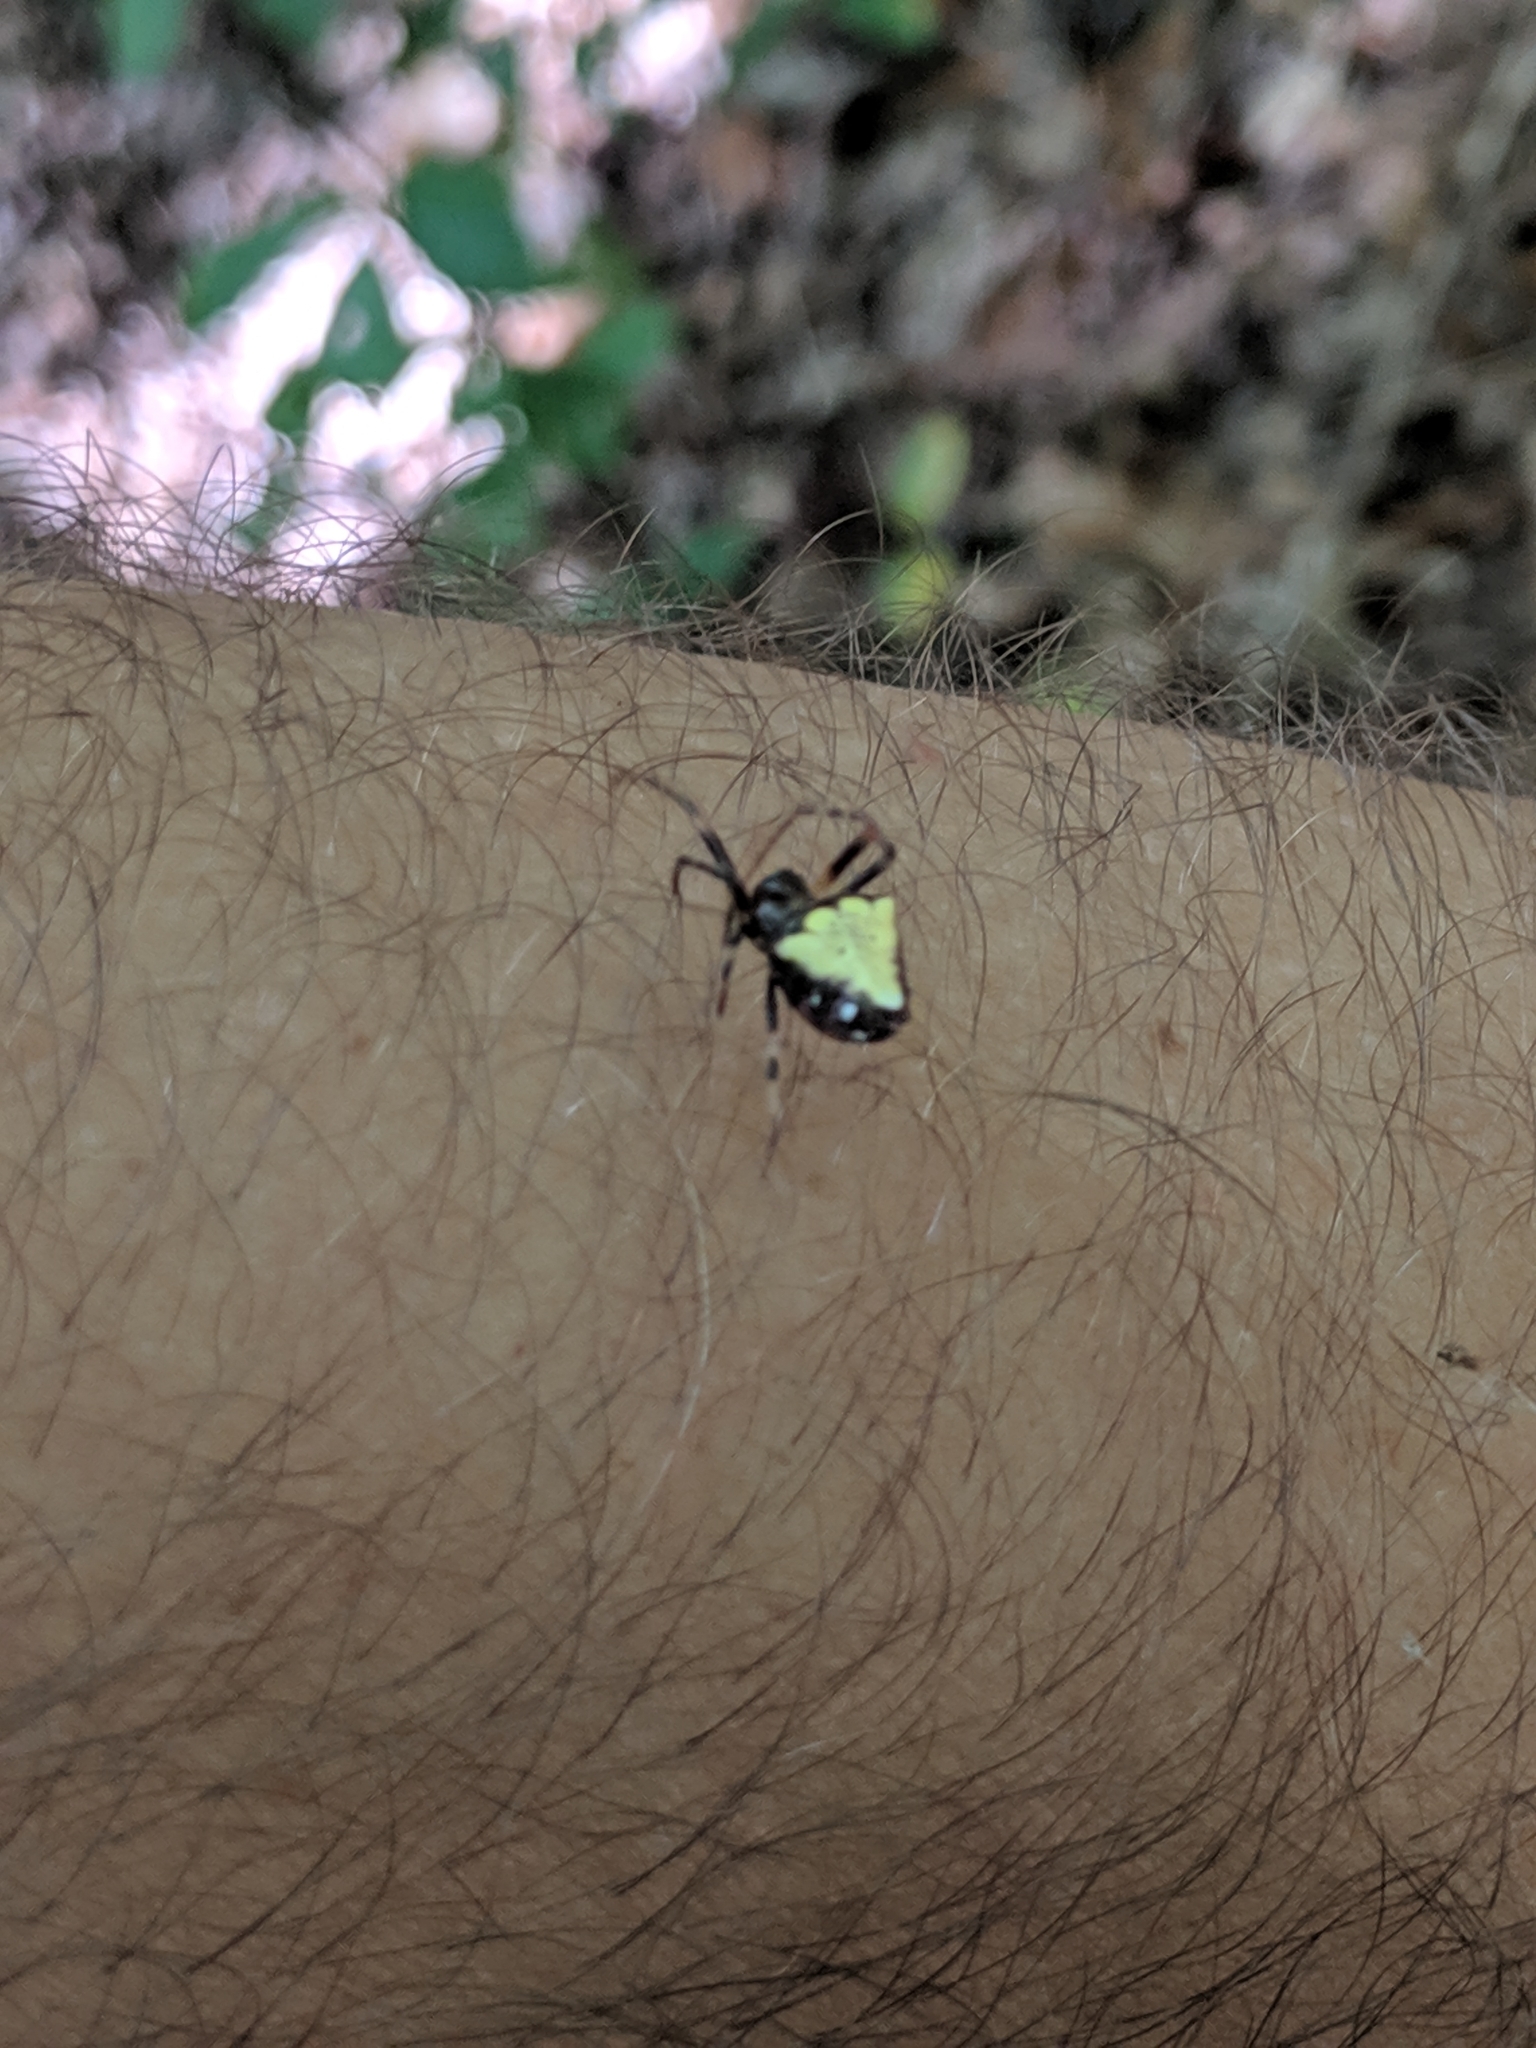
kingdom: Animalia
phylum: Arthropoda
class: Arachnida
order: Araneae
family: Araneidae
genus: Verrucosa
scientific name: Verrucosa arenata
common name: Orb weavers
